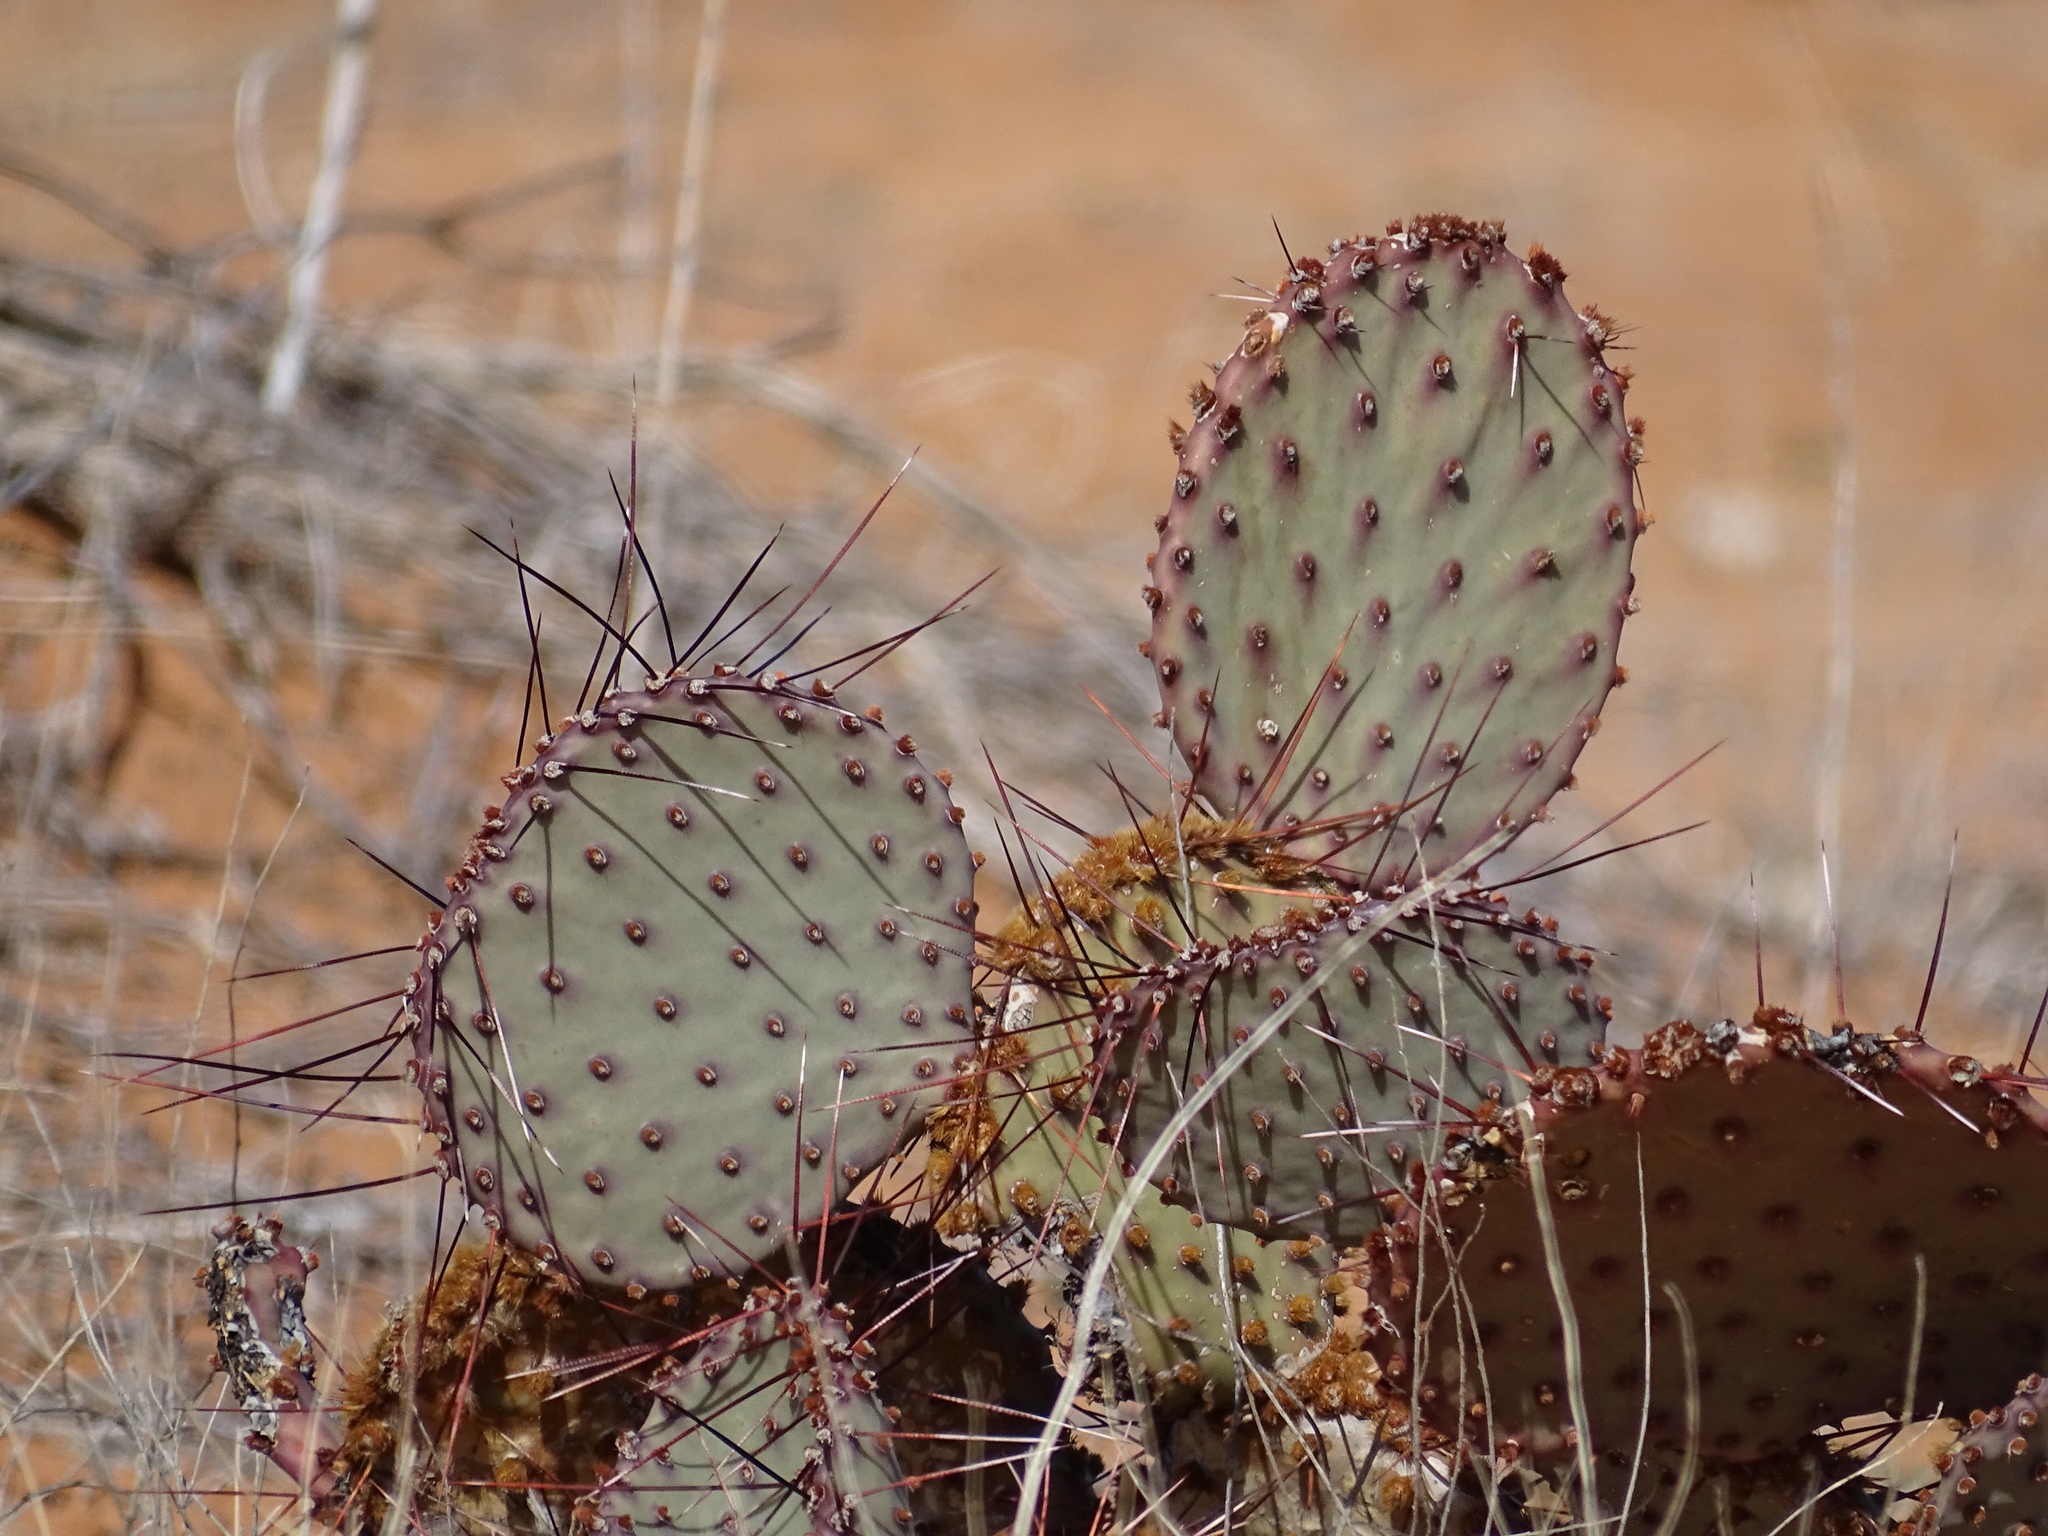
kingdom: Plantae
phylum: Tracheophyta
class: Magnoliopsida
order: Caryophyllales
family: Cactaceae
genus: Opuntia
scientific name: Opuntia macrocentra
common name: Purple prickly-pear
